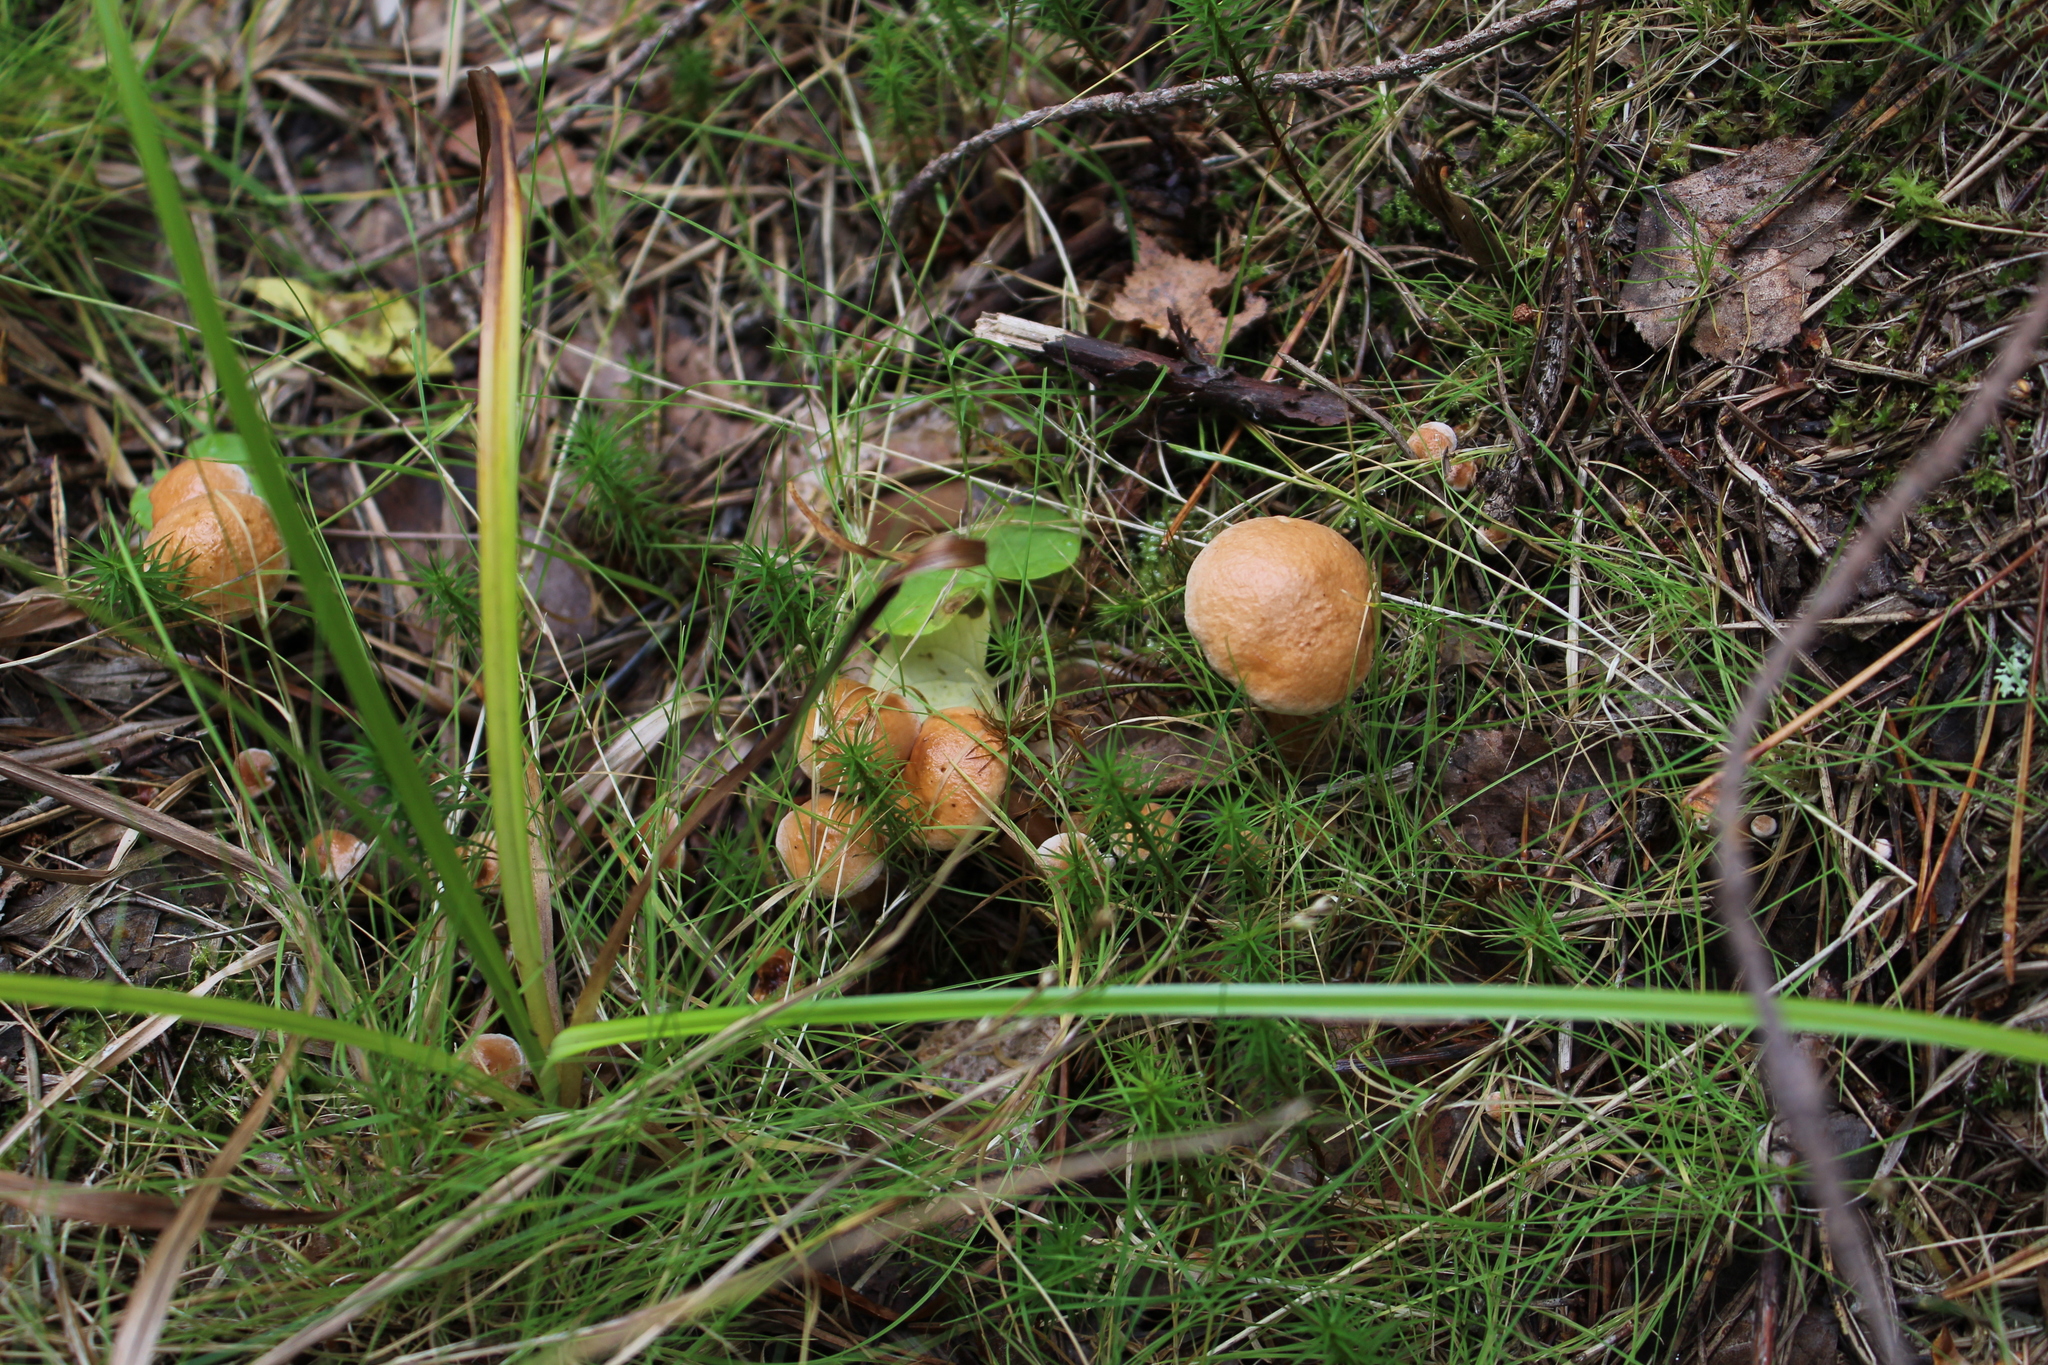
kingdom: Fungi
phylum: Basidiomycota
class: Agaricomycetes
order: Boletales
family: Suillaceae
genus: Suillus
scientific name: Suillus bovinus
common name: Bovine bolete
